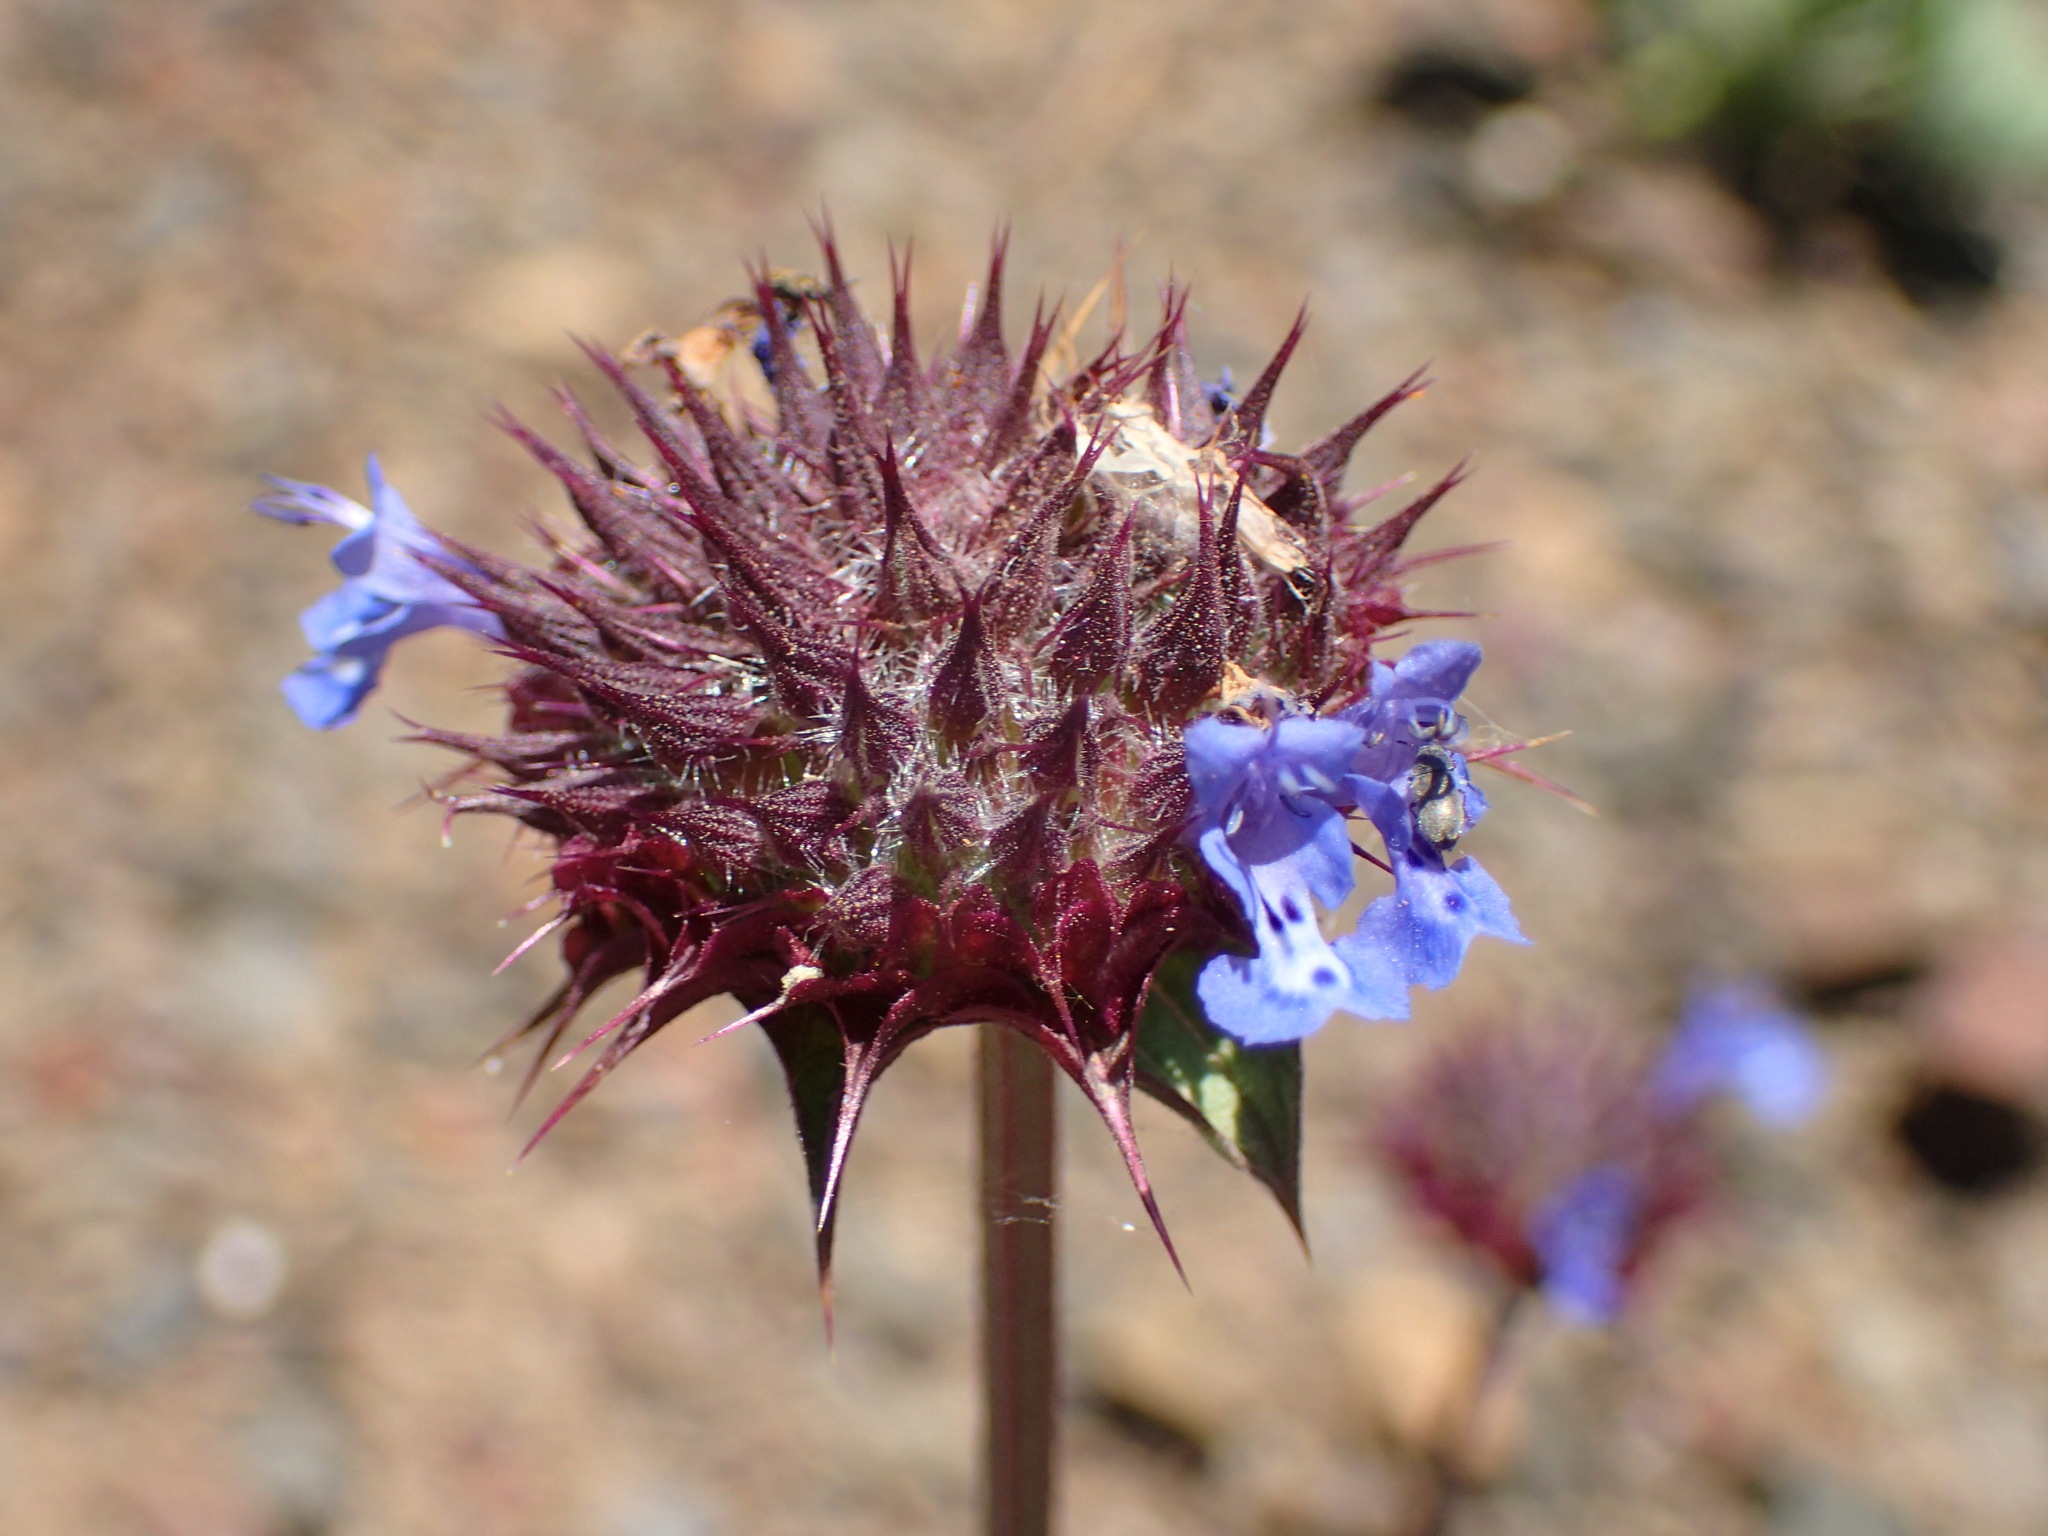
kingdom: Plantae
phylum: Tracheophyta
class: Magnoliopsida
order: Lamiales
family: Lamiaceae
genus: Salvia
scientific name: Salvia columbariae
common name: Chia
